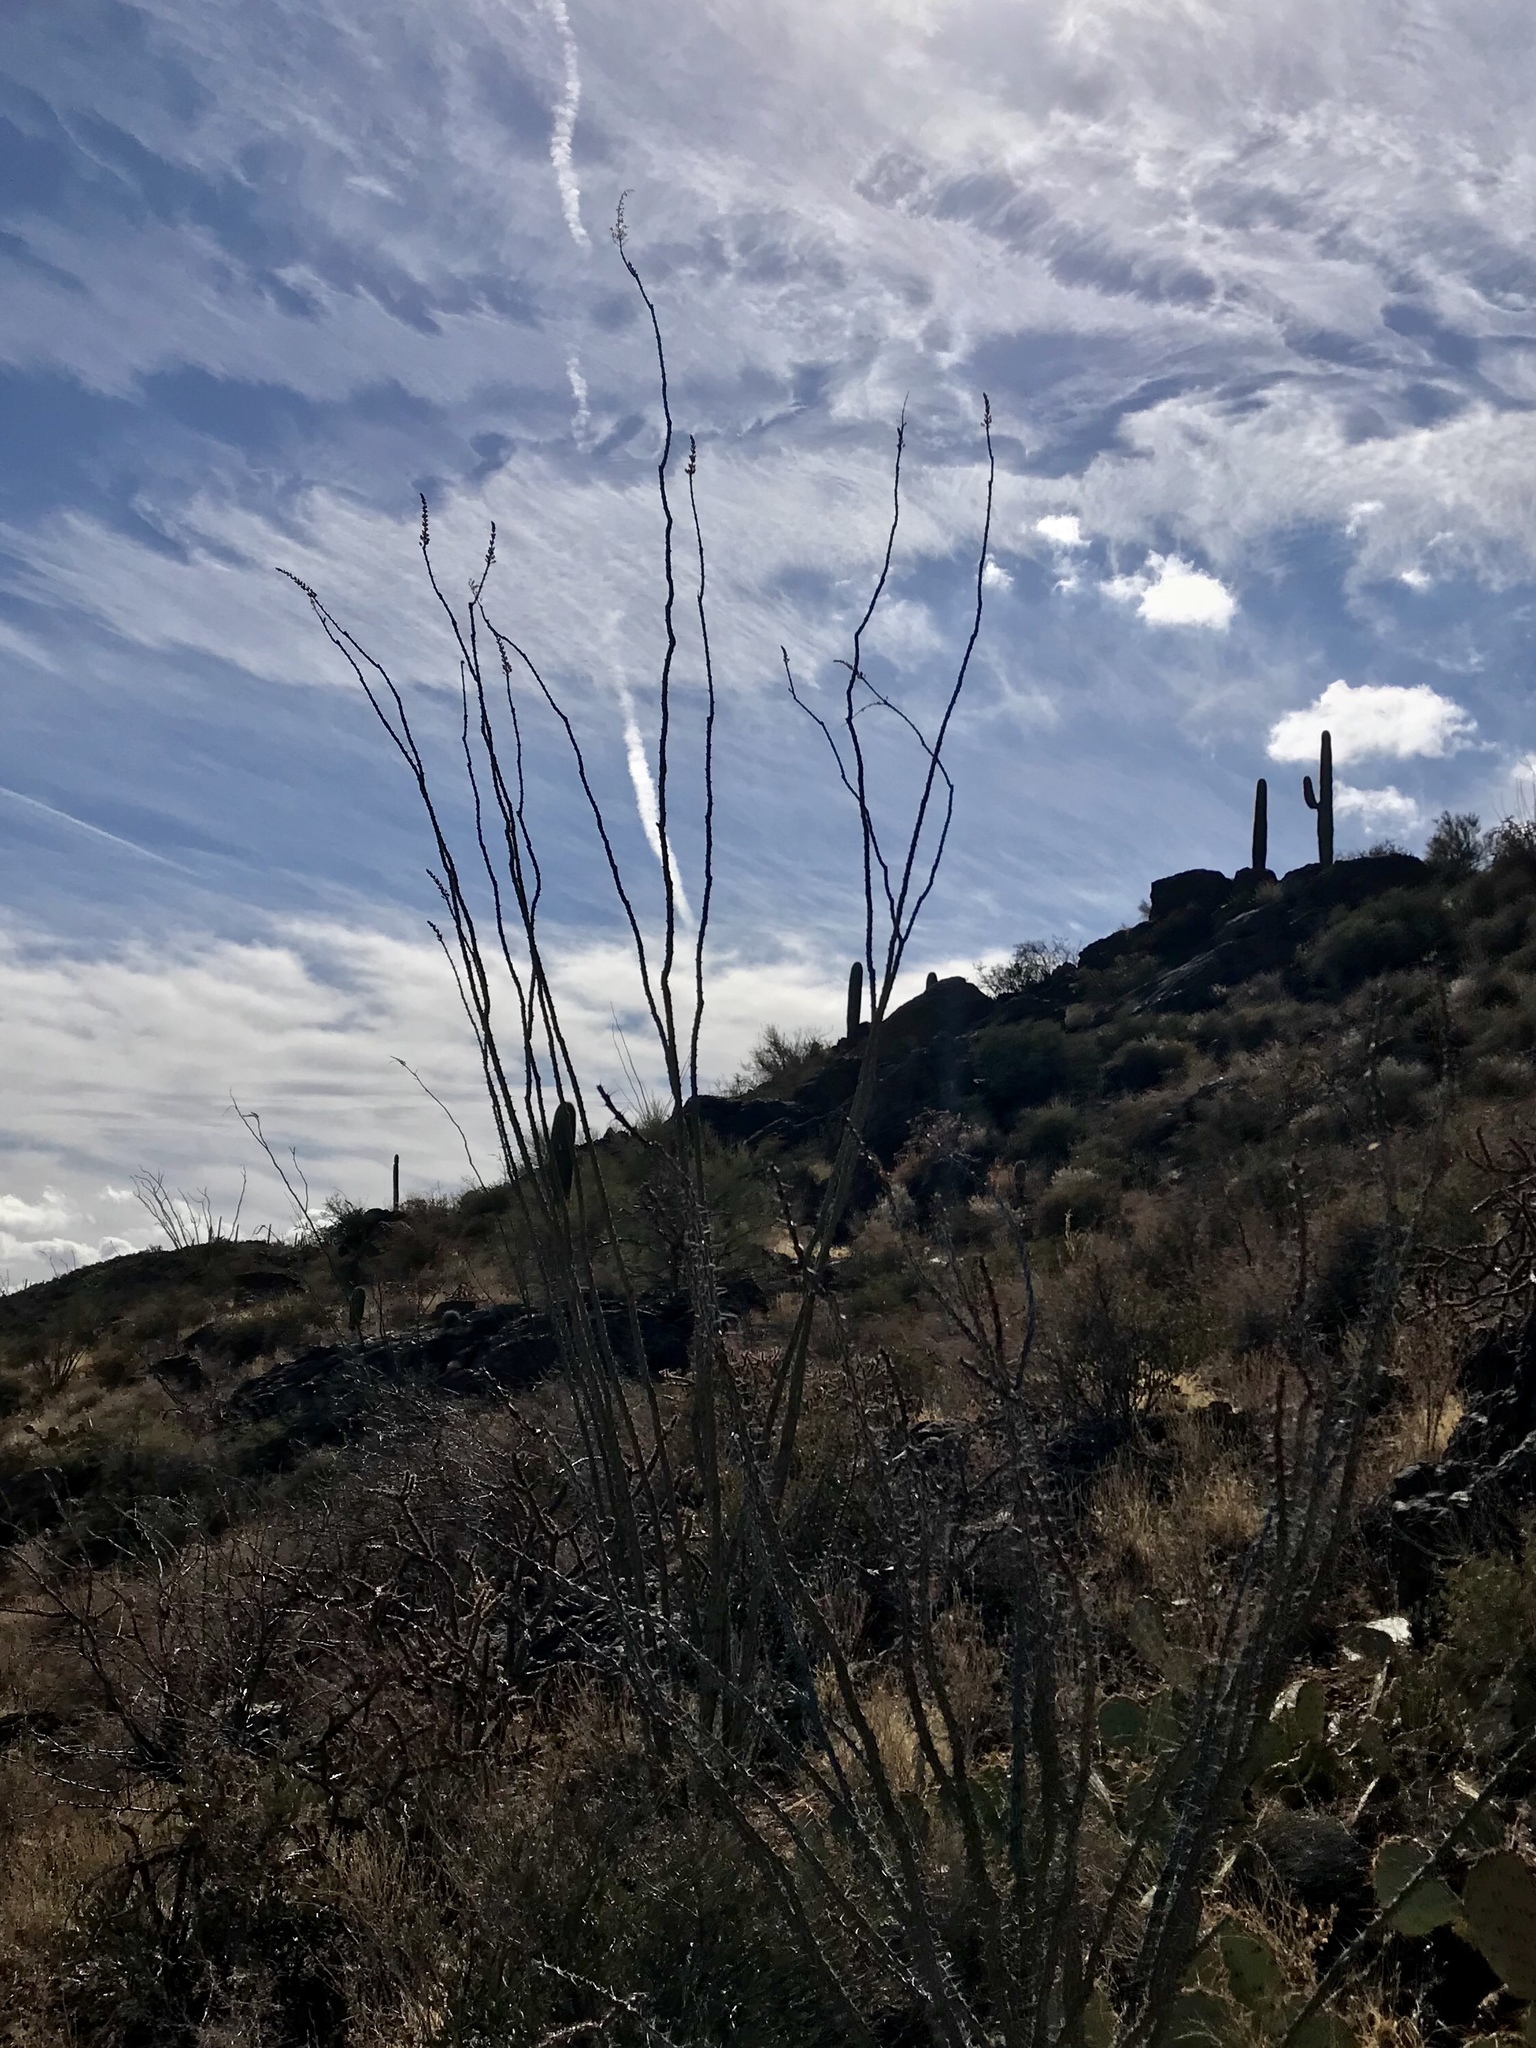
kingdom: Plantae
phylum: Tracheophyta
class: Magnoliopsida
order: Ericales
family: Fouquieriaceae
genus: Fouquieria
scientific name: Fouquieria splendens
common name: Vine-cactus
